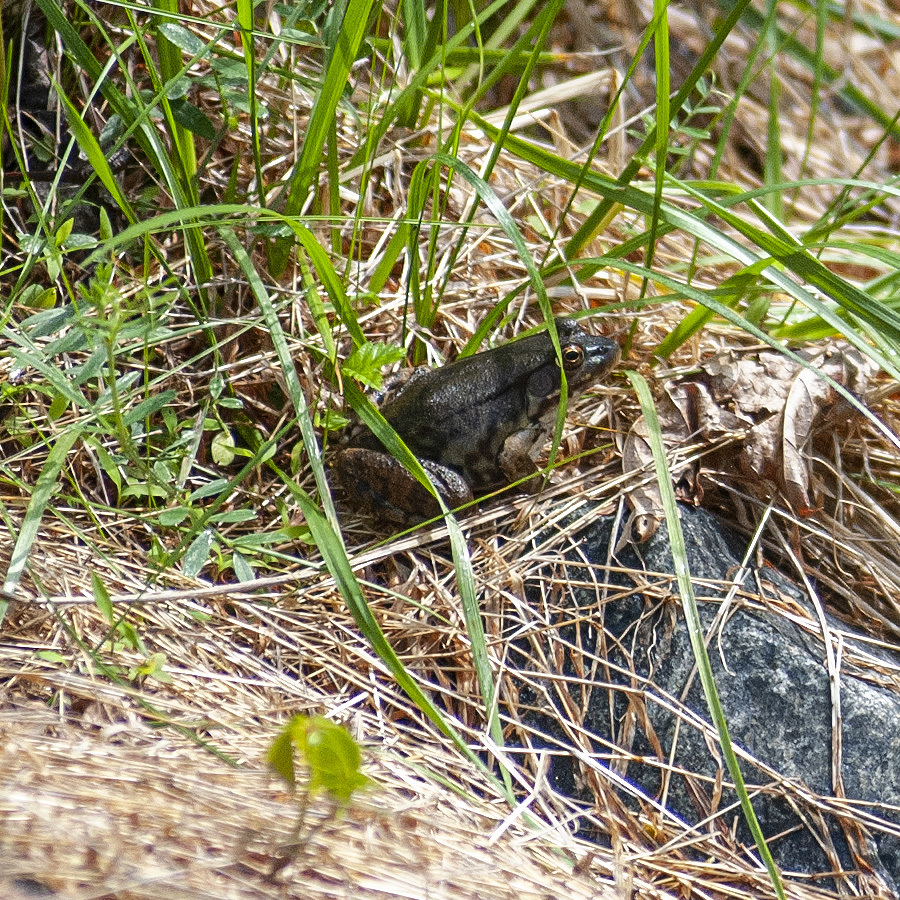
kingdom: Animalia
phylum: Chordata
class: Amphibia
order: Anura
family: Ranidae
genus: Lithobates
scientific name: Lithobates clamitans
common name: Green frog
